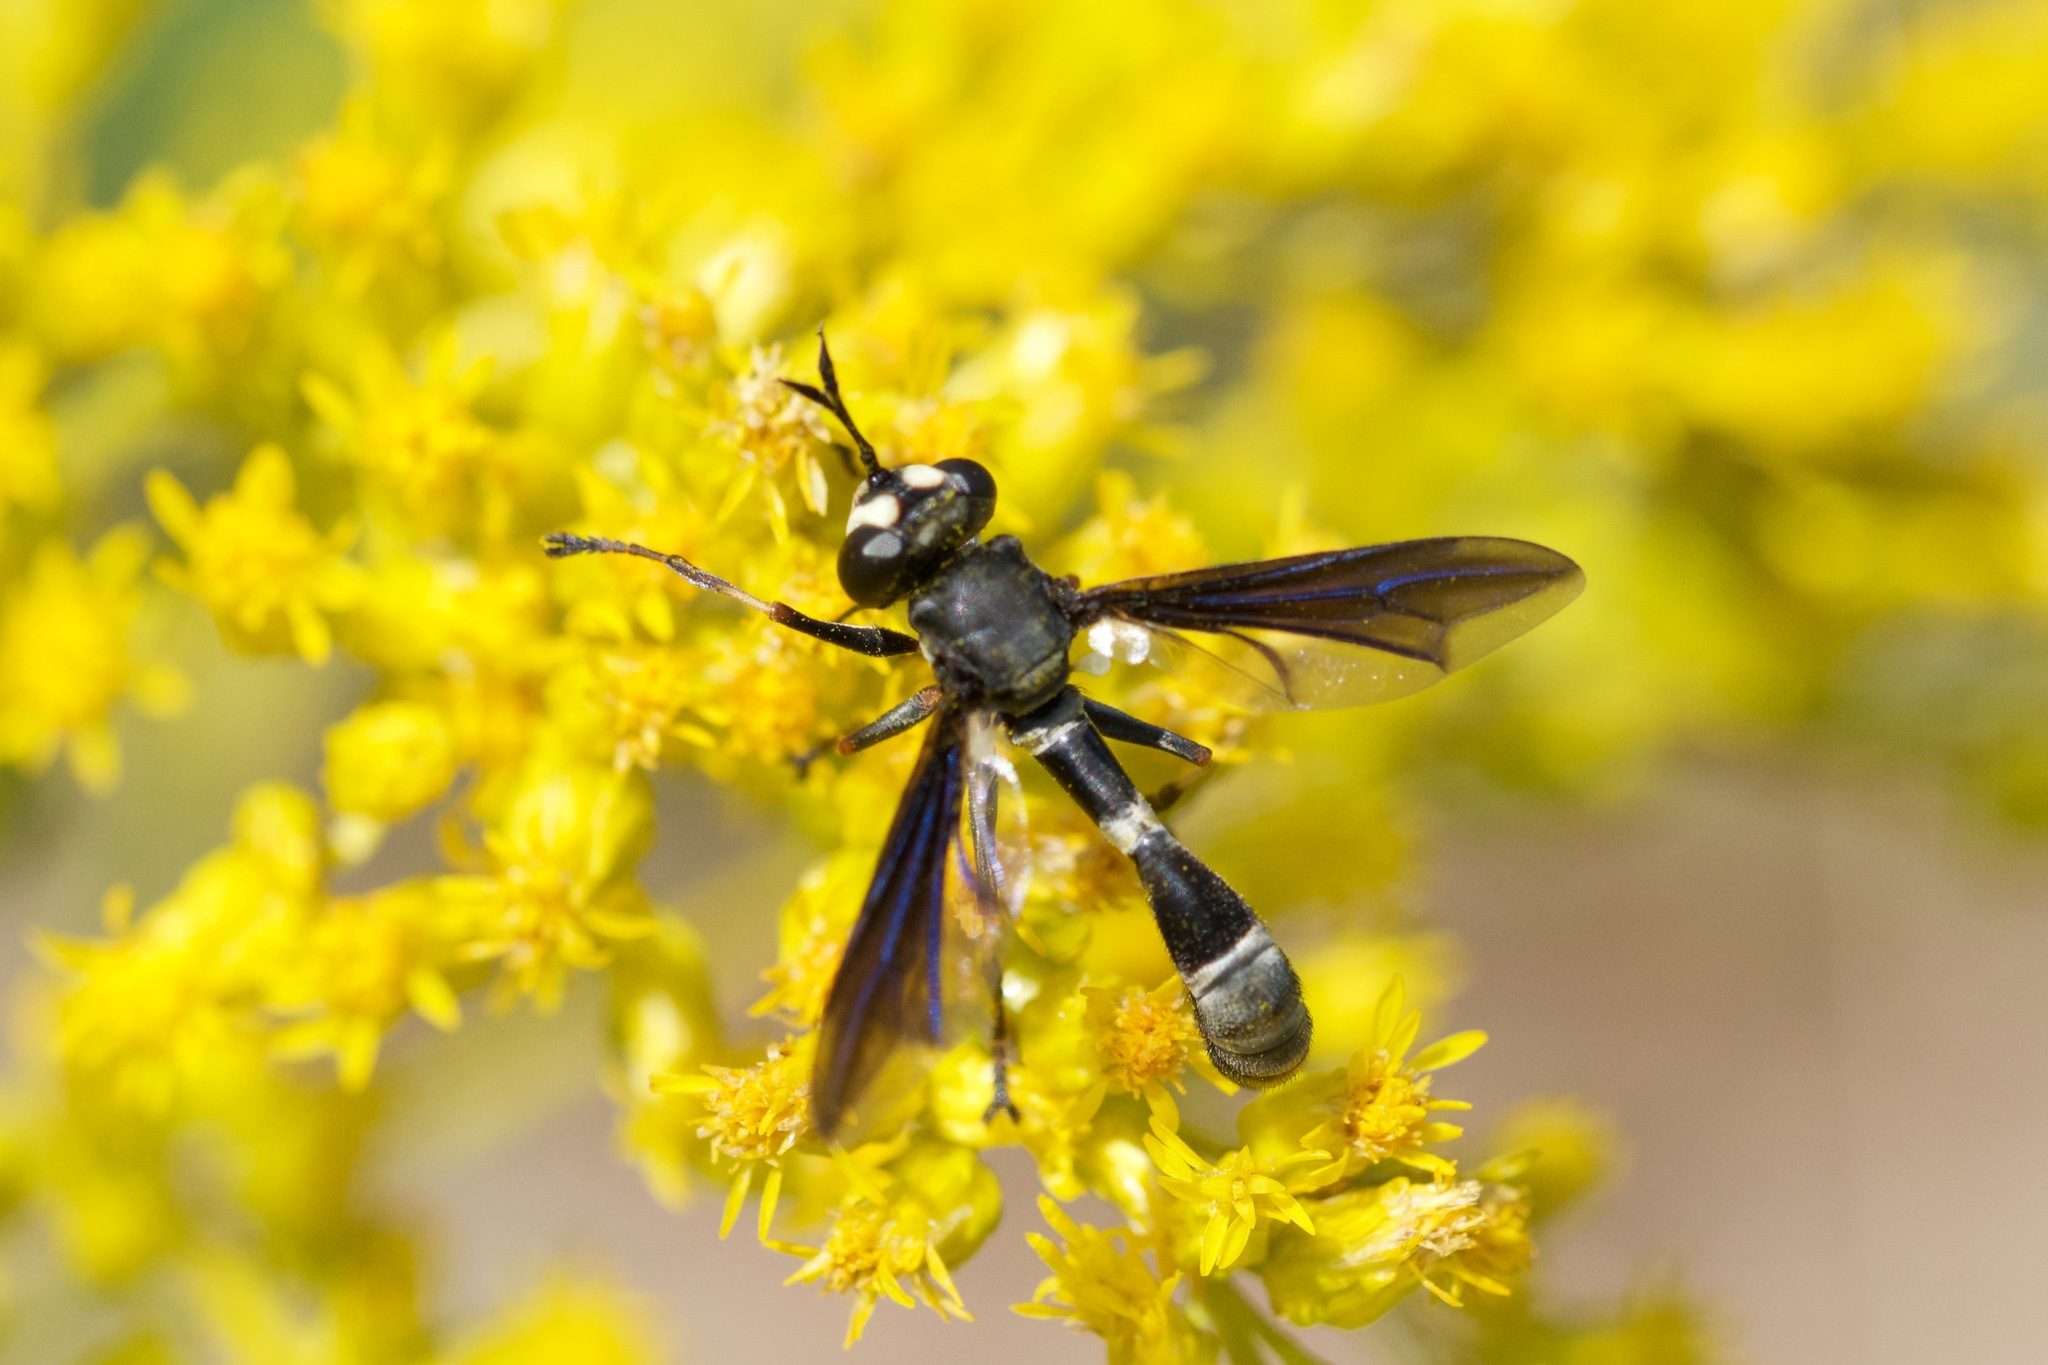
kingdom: Animalia
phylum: Arthropoda
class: Insecta
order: Diptera
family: Conopidae
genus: Physocephala
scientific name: Physocephala tibialis
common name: Common eastern physocephala
